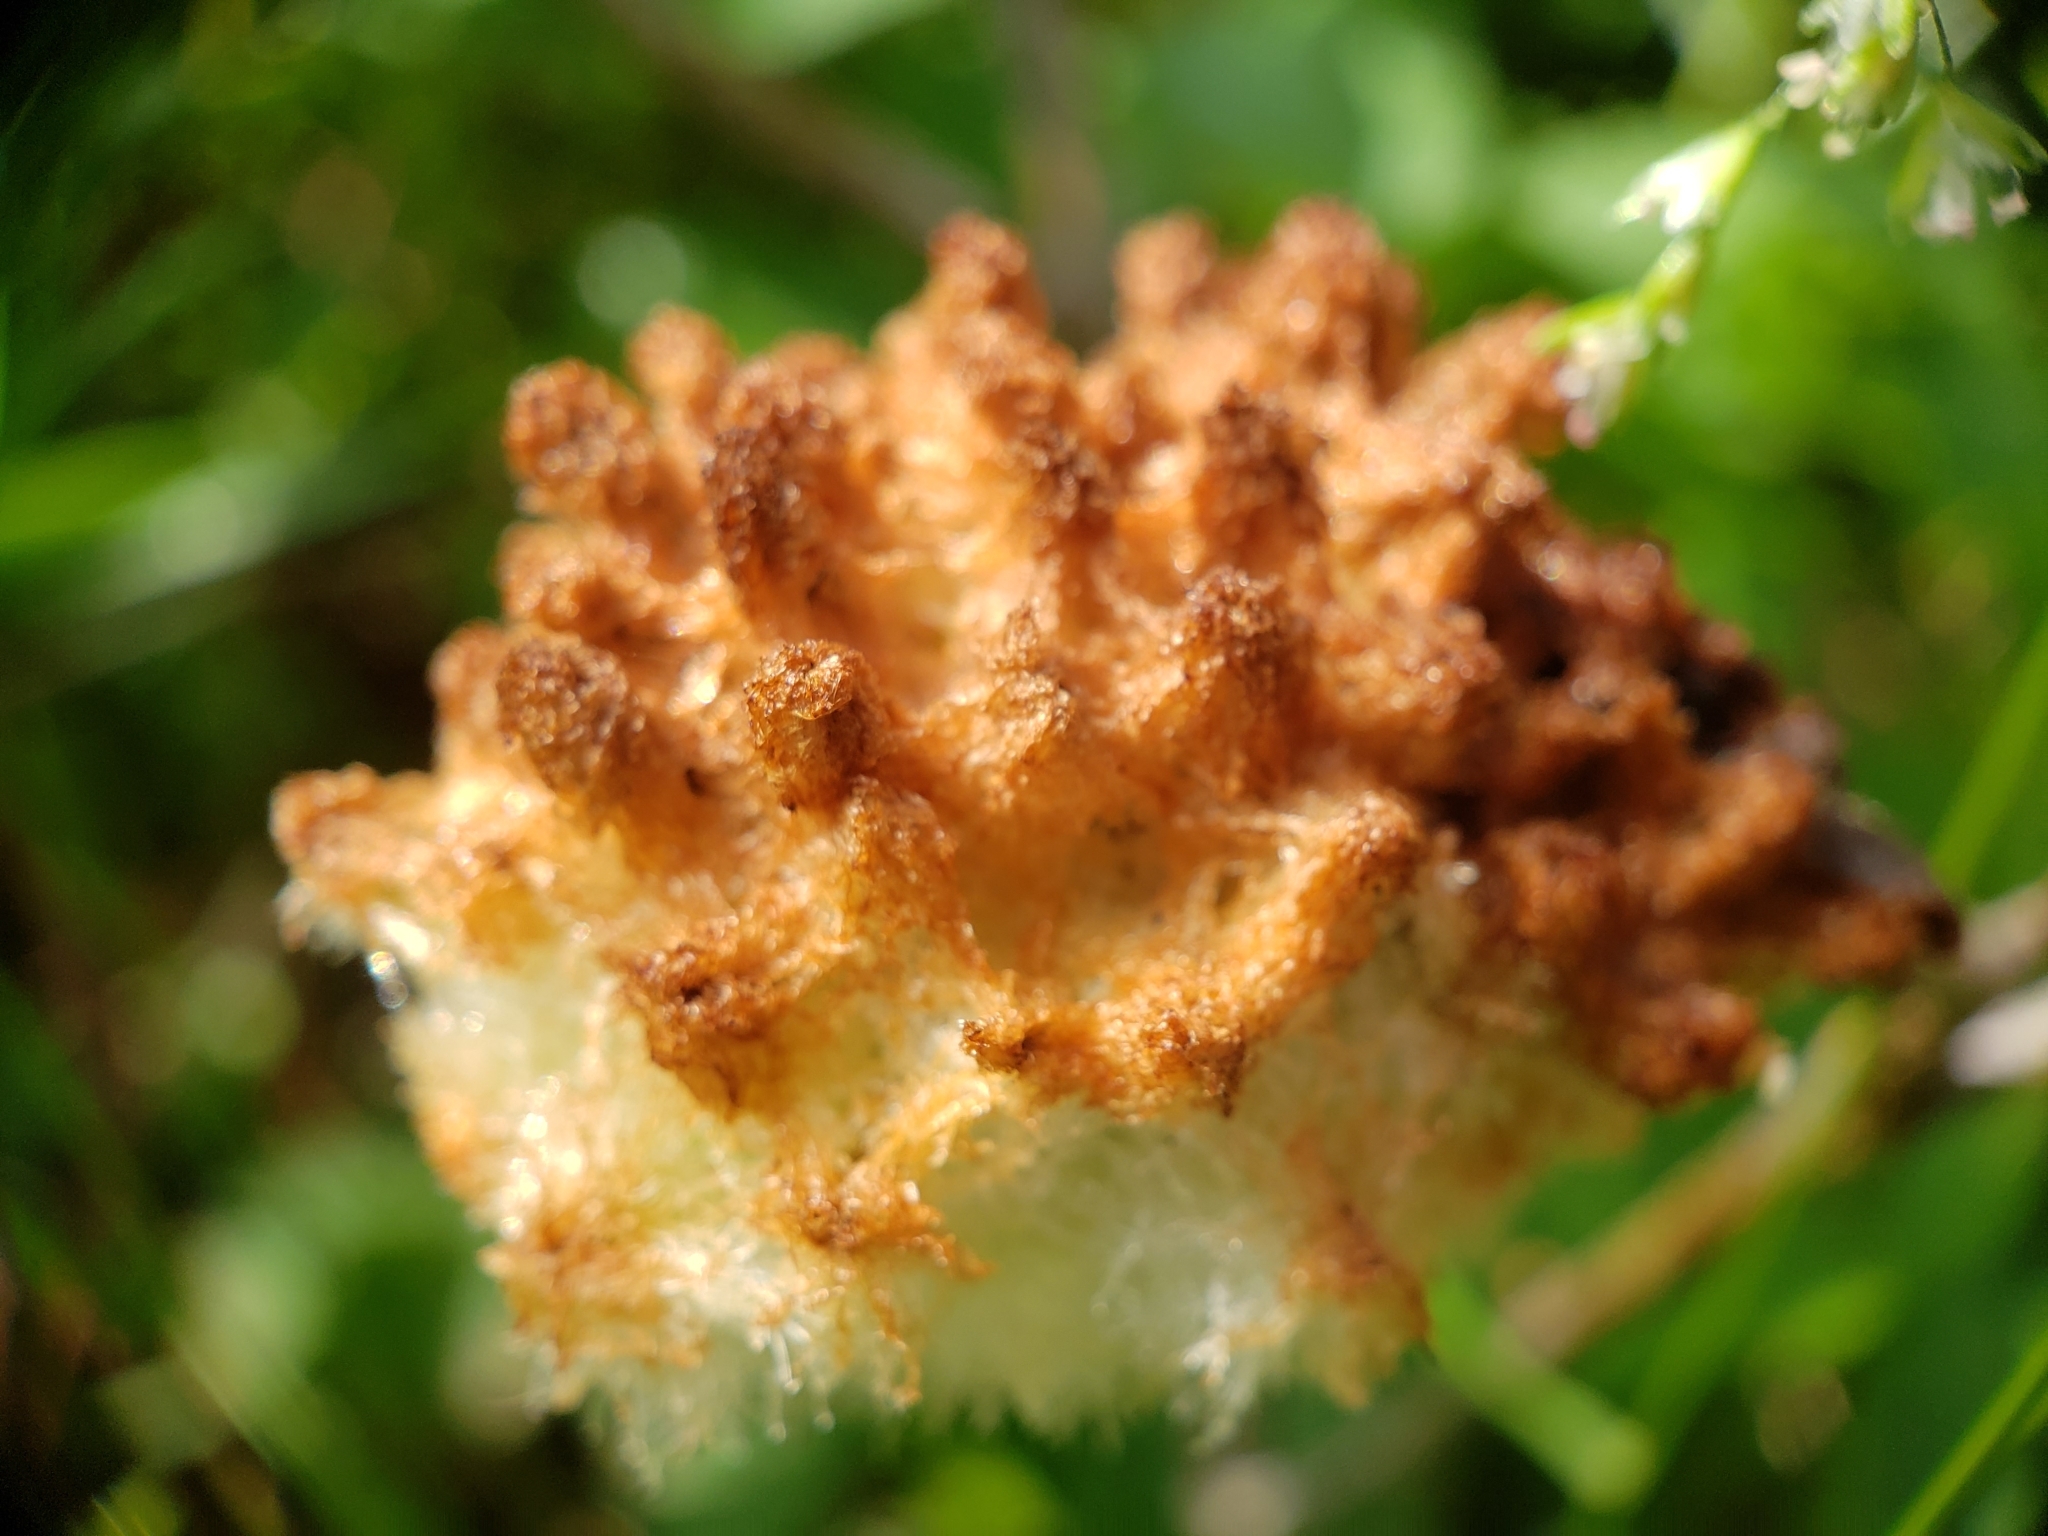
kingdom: Animalia
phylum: Arthropoda
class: Insecta
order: Hymenoptera
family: Cynipidae
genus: Callirhytis
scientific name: Callirhytis
